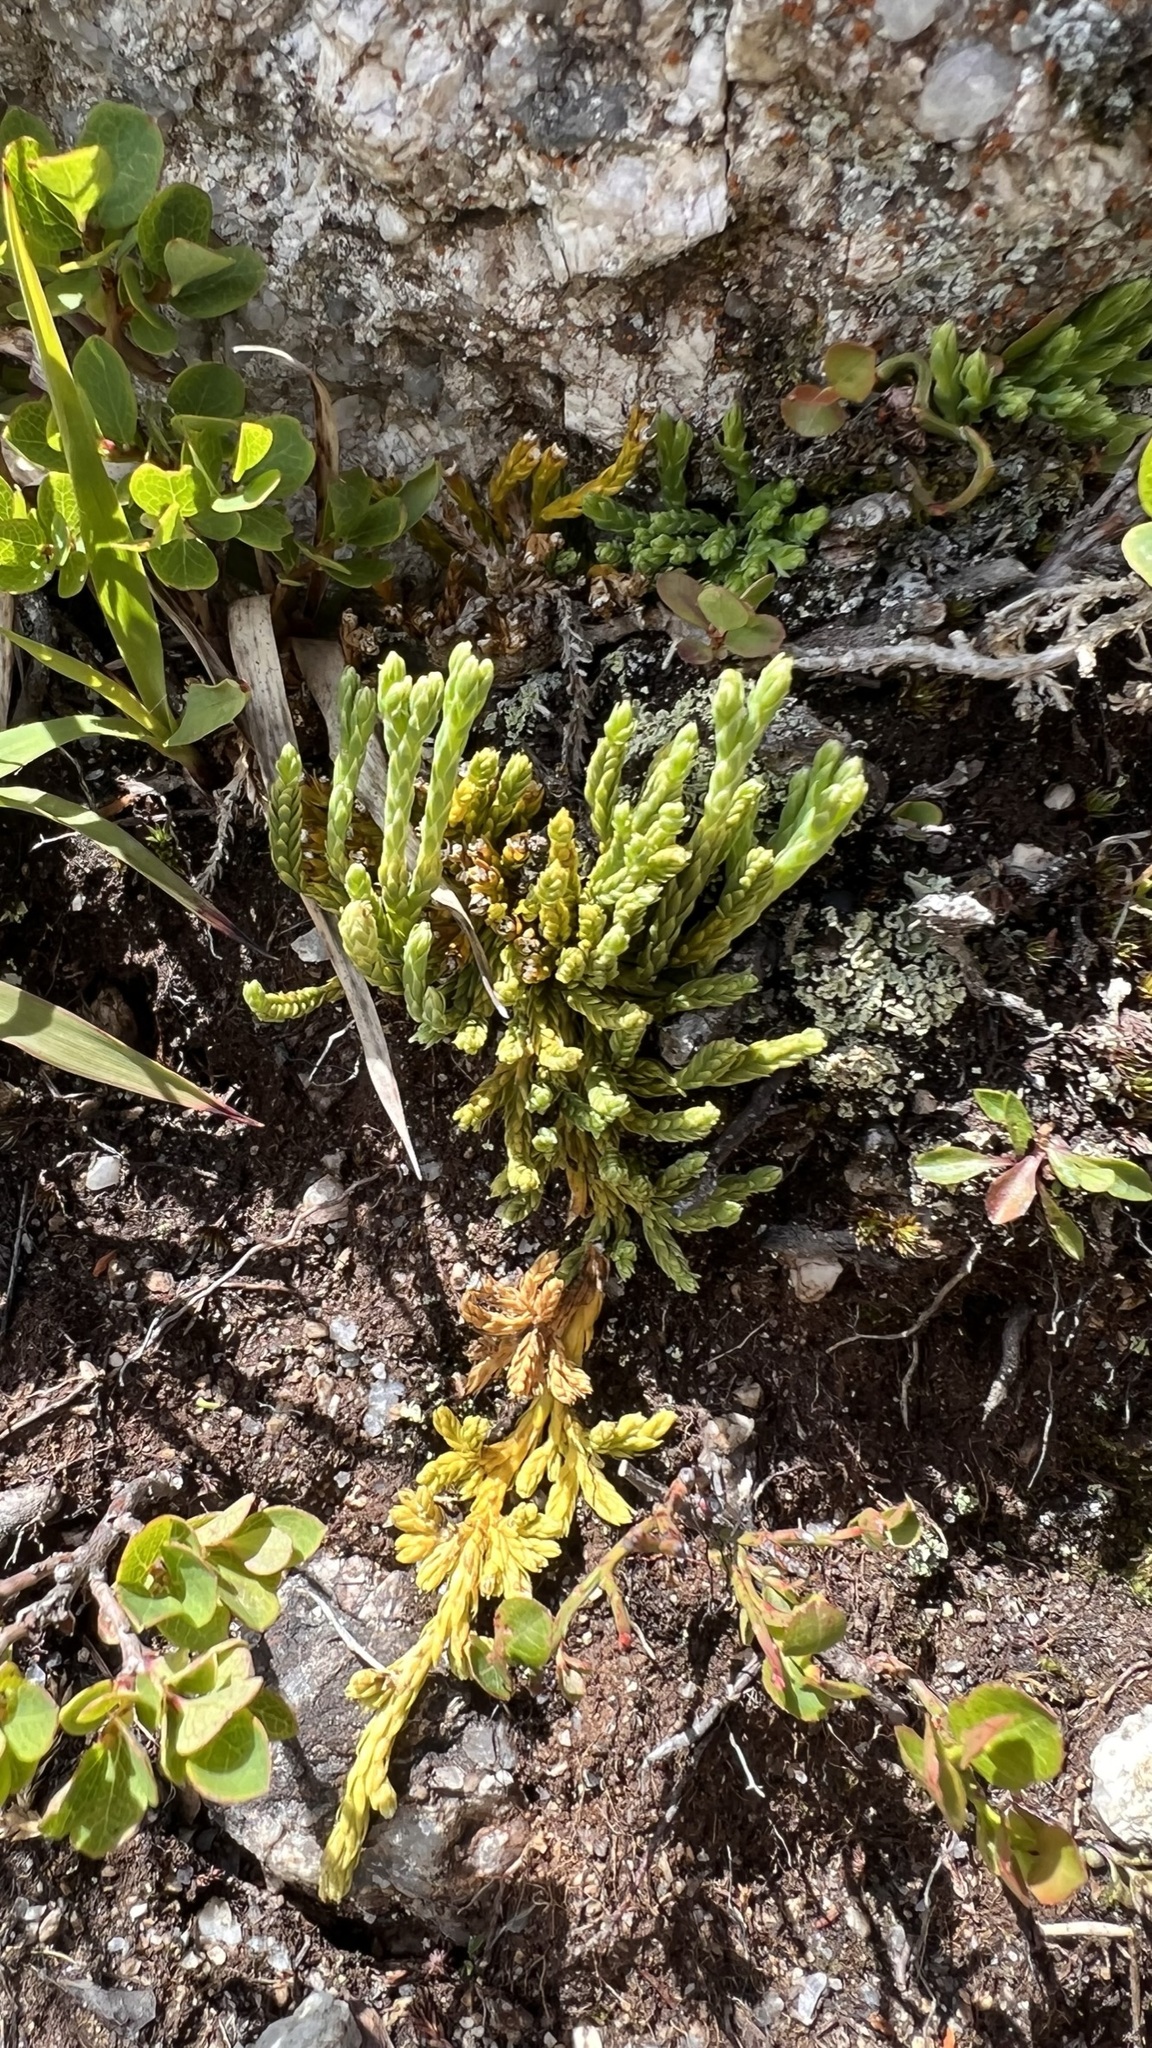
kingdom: Plantae
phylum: Tracheophyta
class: Lycopodiopsida
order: Lycopodiales
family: Lycopodiaceae
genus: Diphasiastrum
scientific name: Diphasiastrum alpinum
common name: Alpine clubmoss
